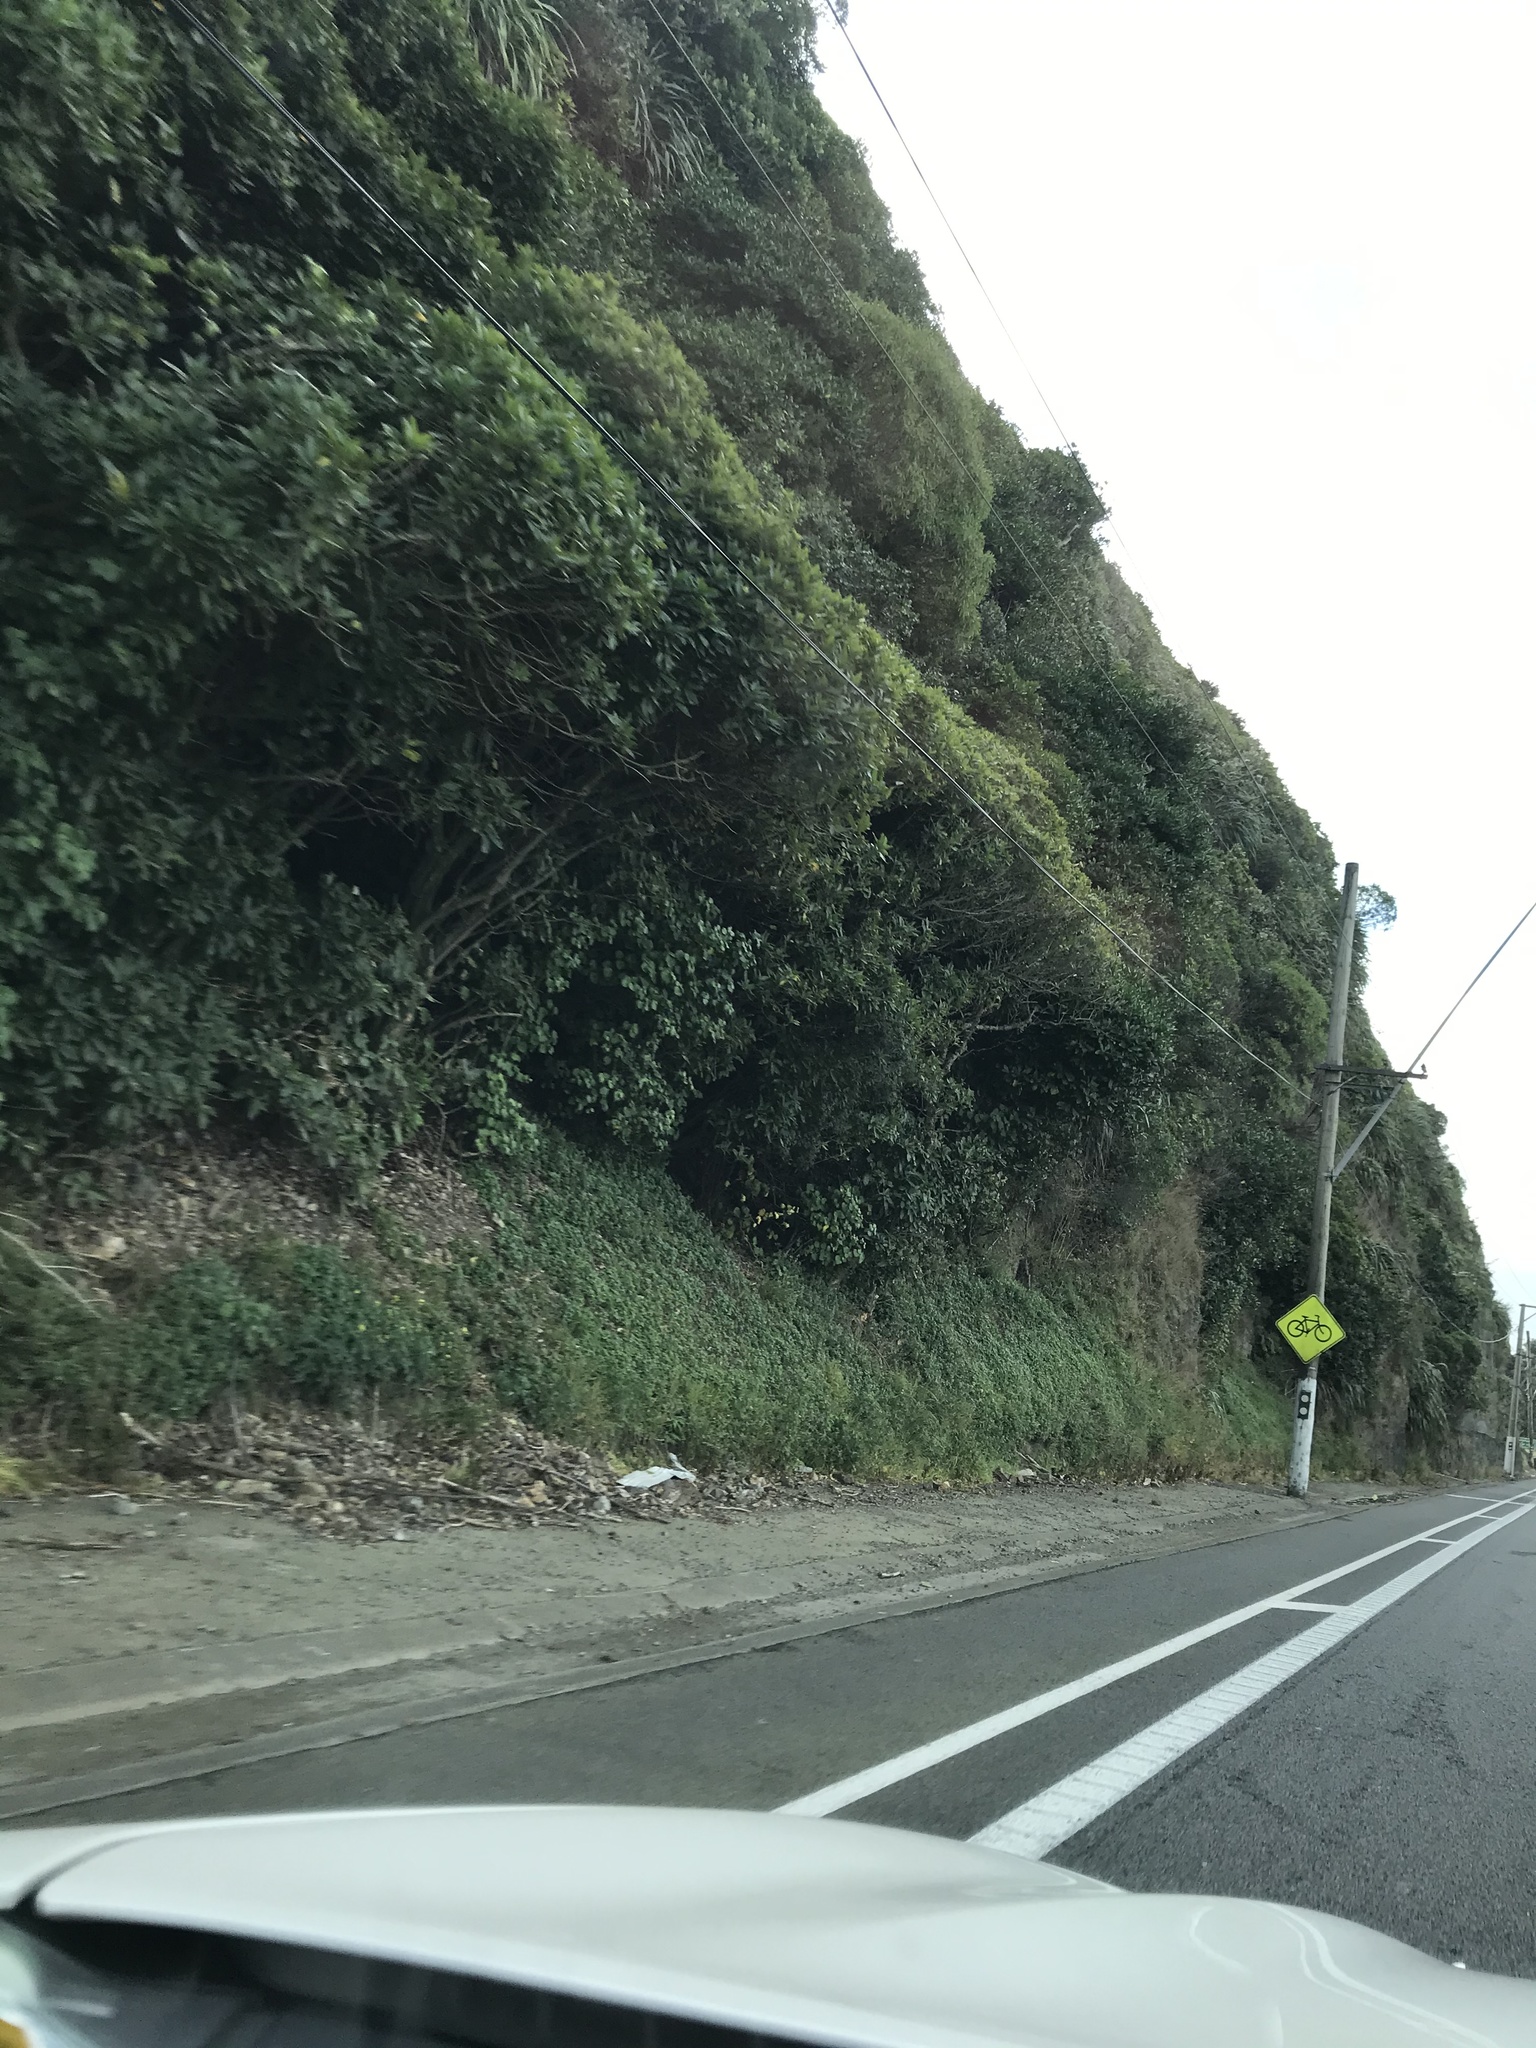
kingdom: Plantae
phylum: Tracheophyta
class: Magnoliopsida
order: Malpighiales
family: Violaceae
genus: Melicytus
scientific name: Melicytus ramiflorus
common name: Mahoe
